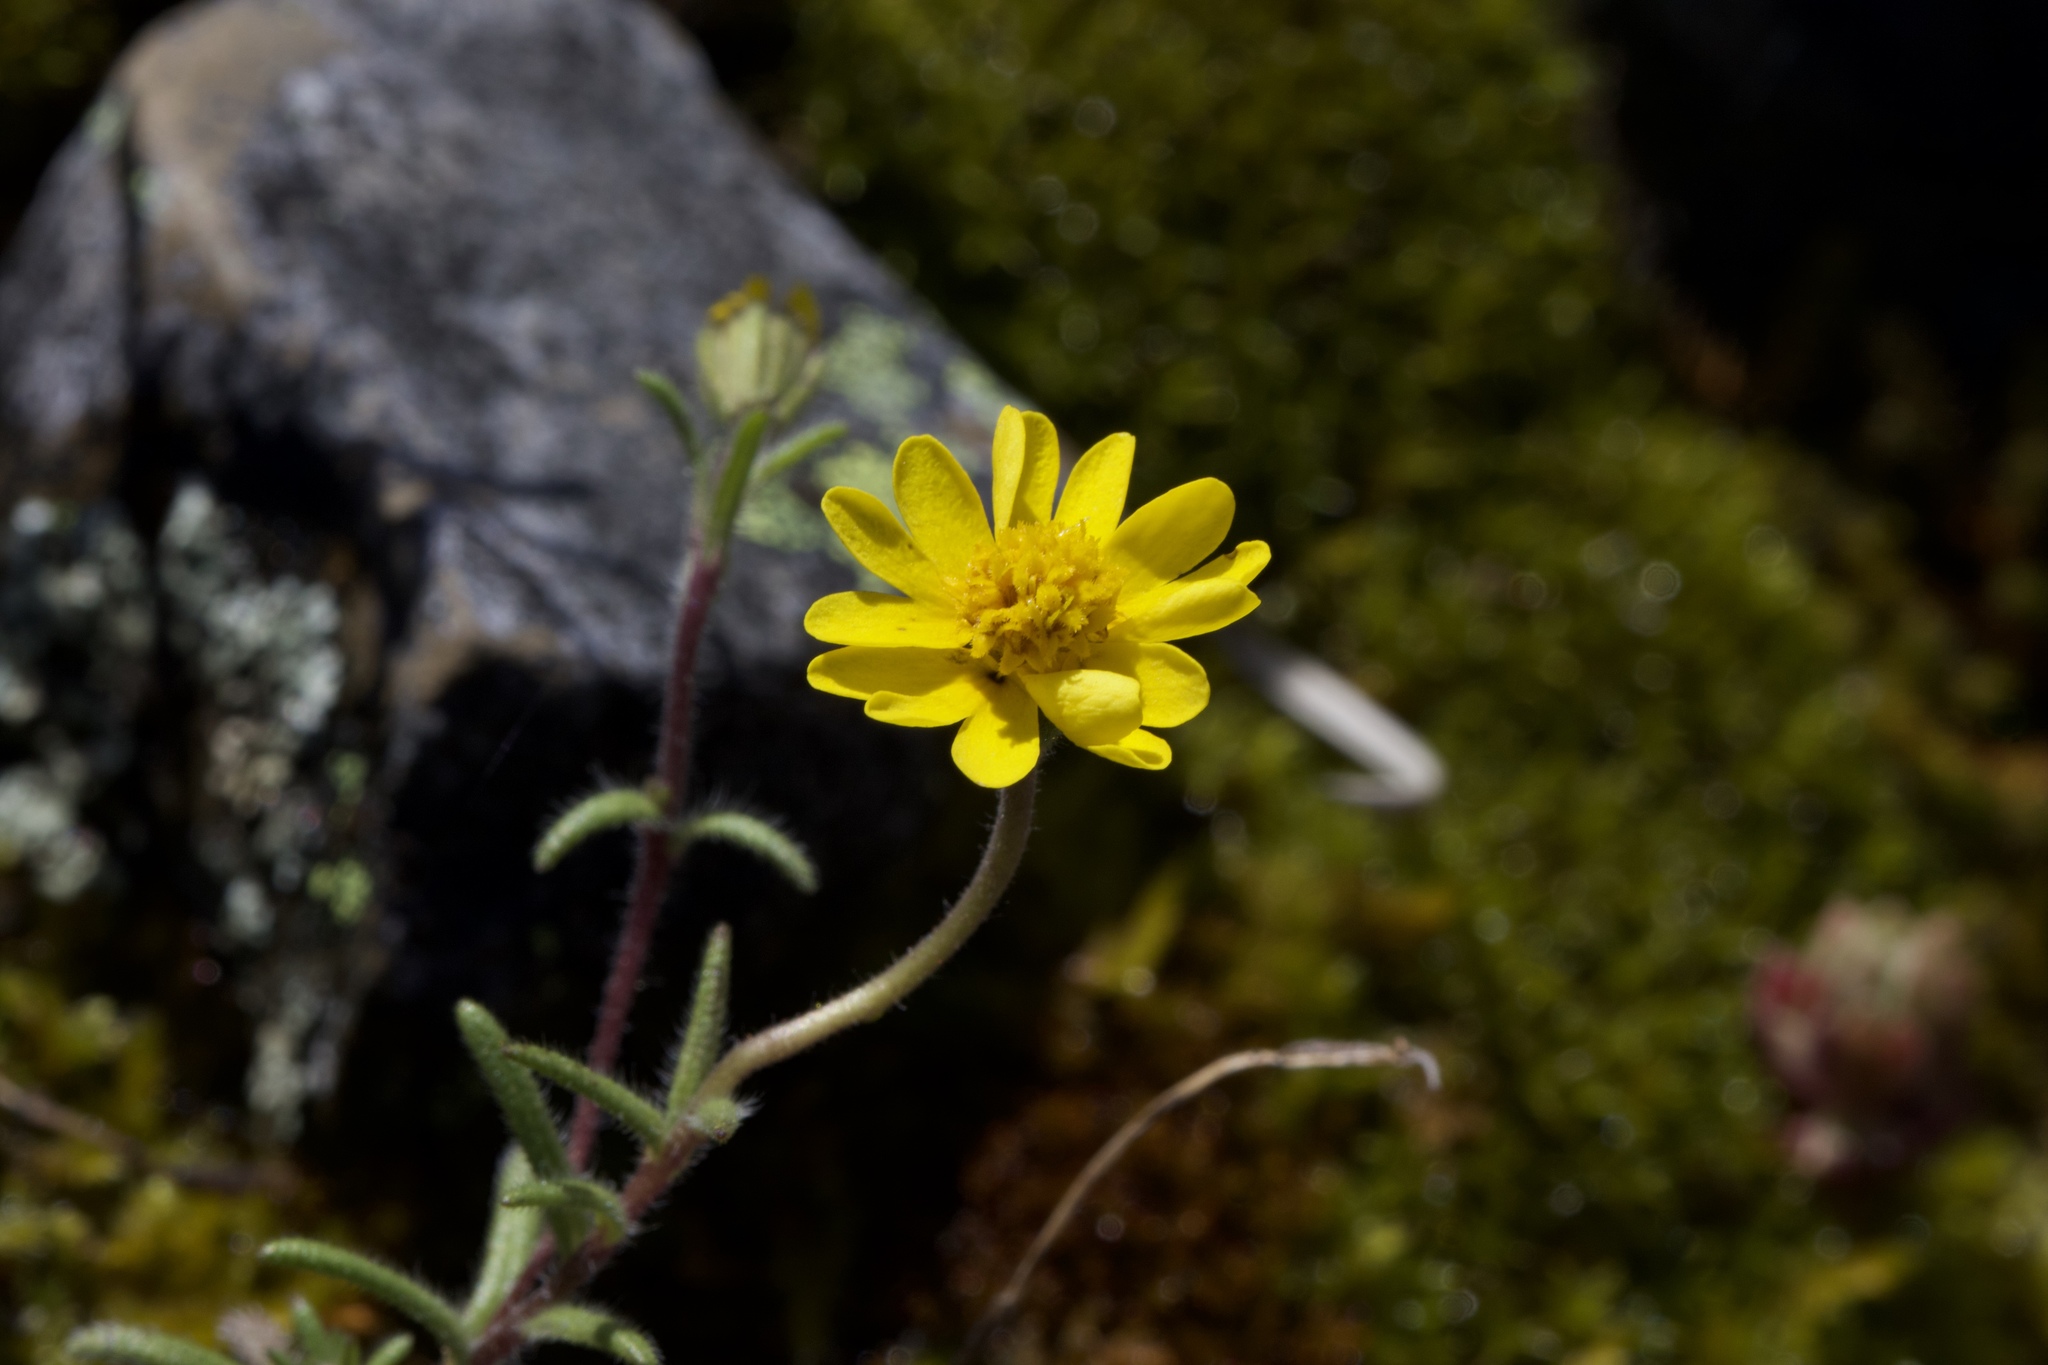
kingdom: Plantae
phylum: Tracheophyta
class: Magnoliopsida
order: Asterales
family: Asteraceae
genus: Harmonia
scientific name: Harmonia nutans
